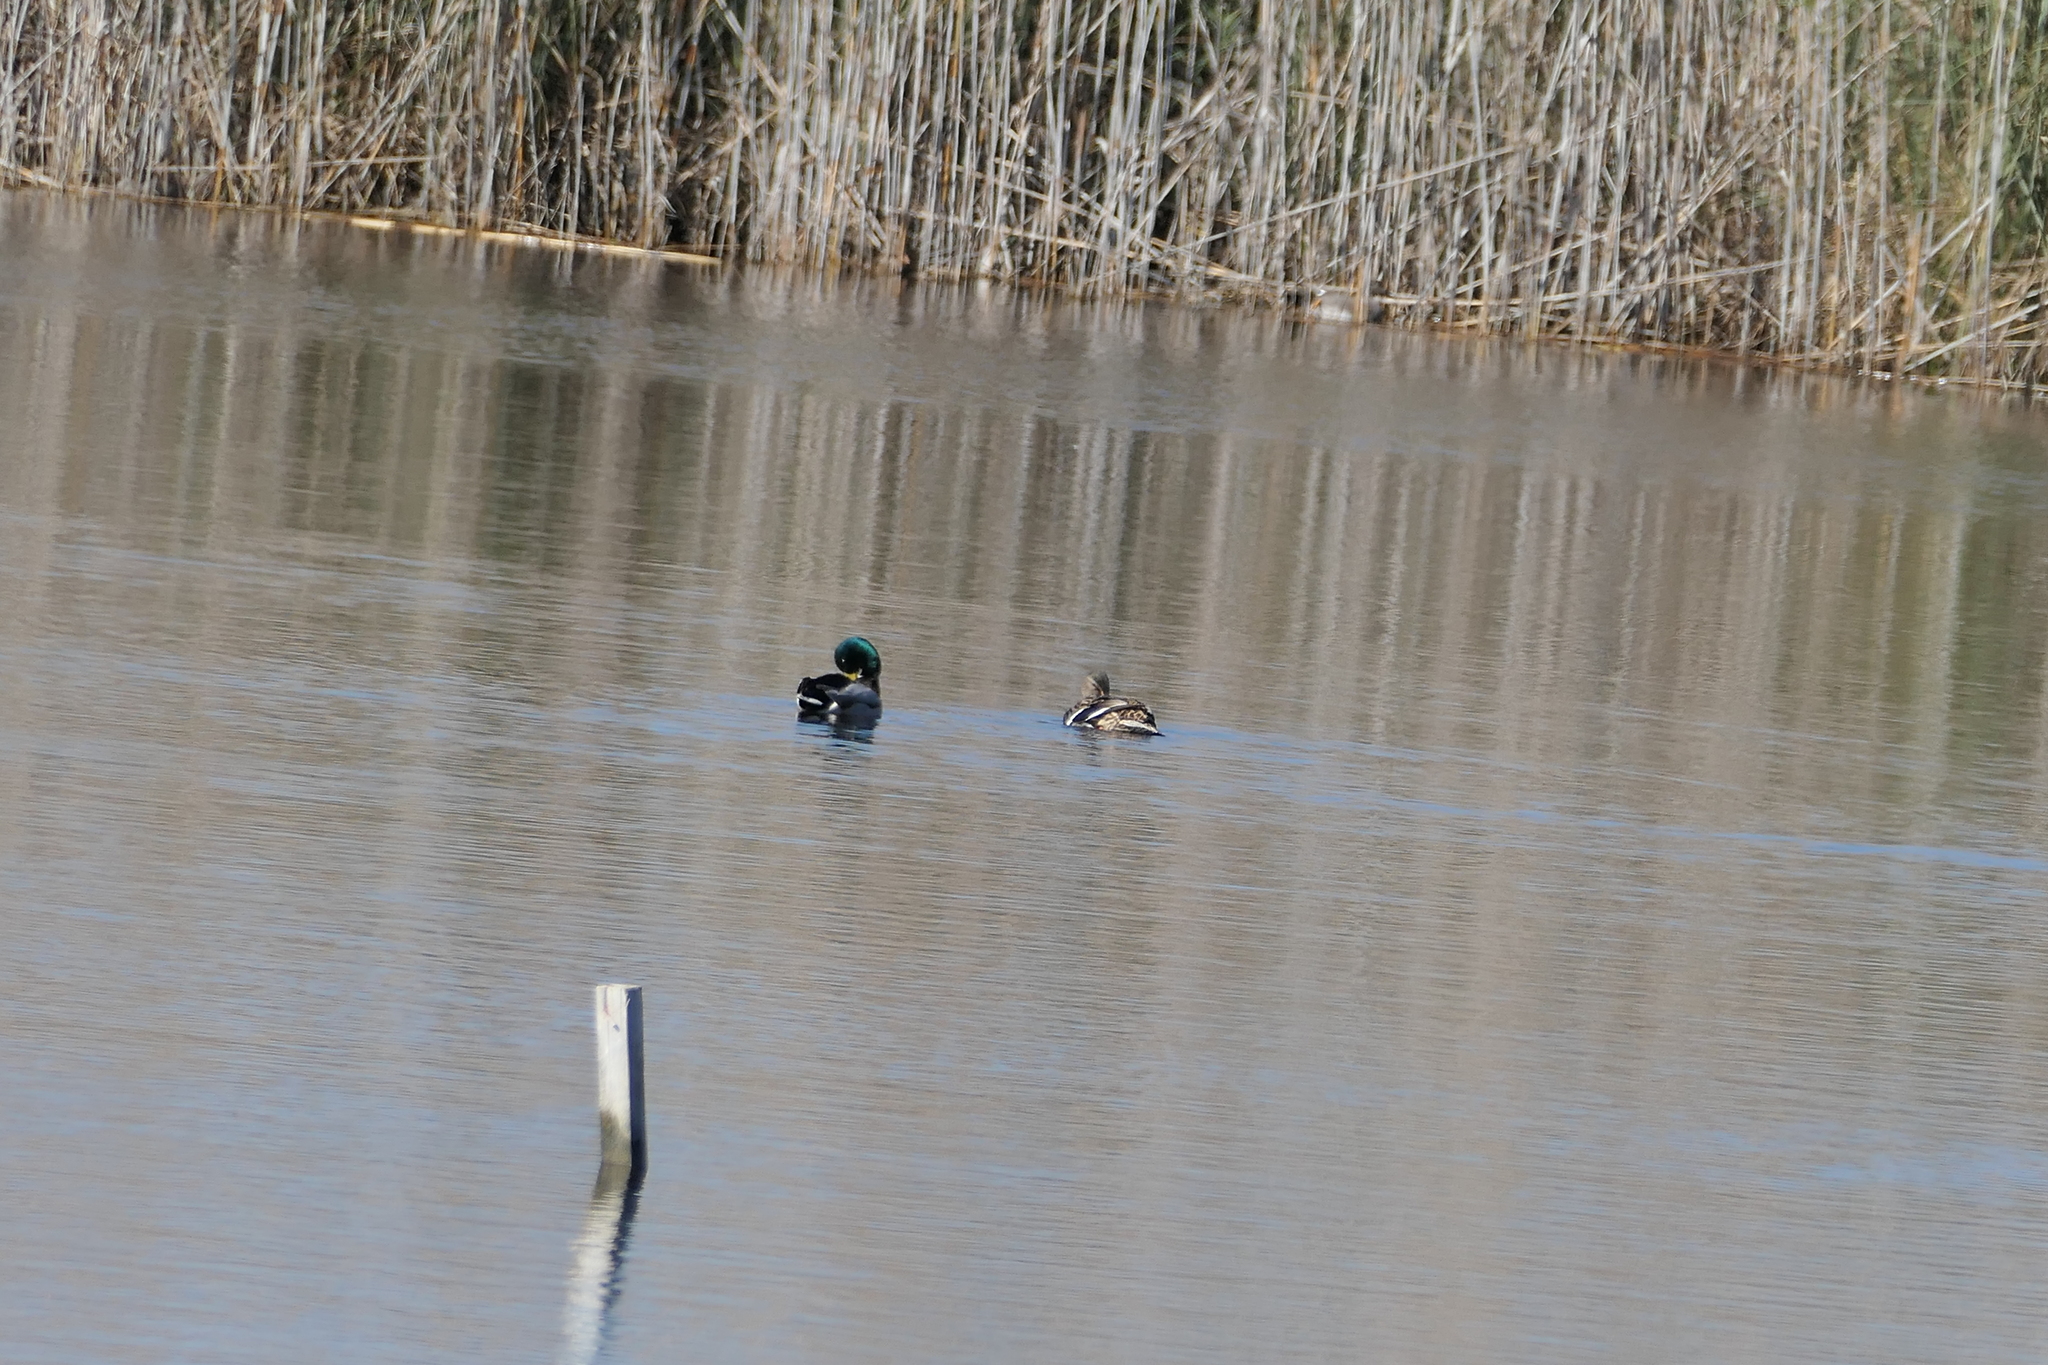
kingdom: Animalia
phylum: Chordata
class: Aves
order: Anseriformes
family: Anatidae
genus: Anas
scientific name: Anas platyrhynchos
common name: Mallard
